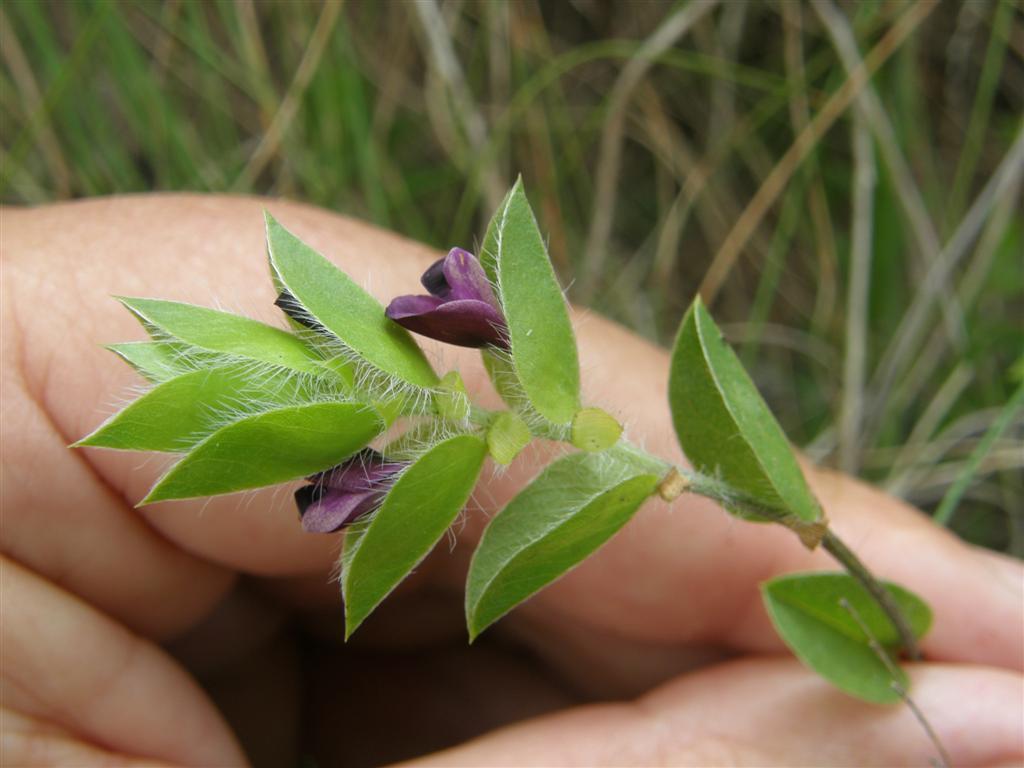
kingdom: Plantae
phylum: Tracheophyta
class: Magnoliopsida
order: Fabales
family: Fabaceae
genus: Psoralea
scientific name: Psoralea imbricata
